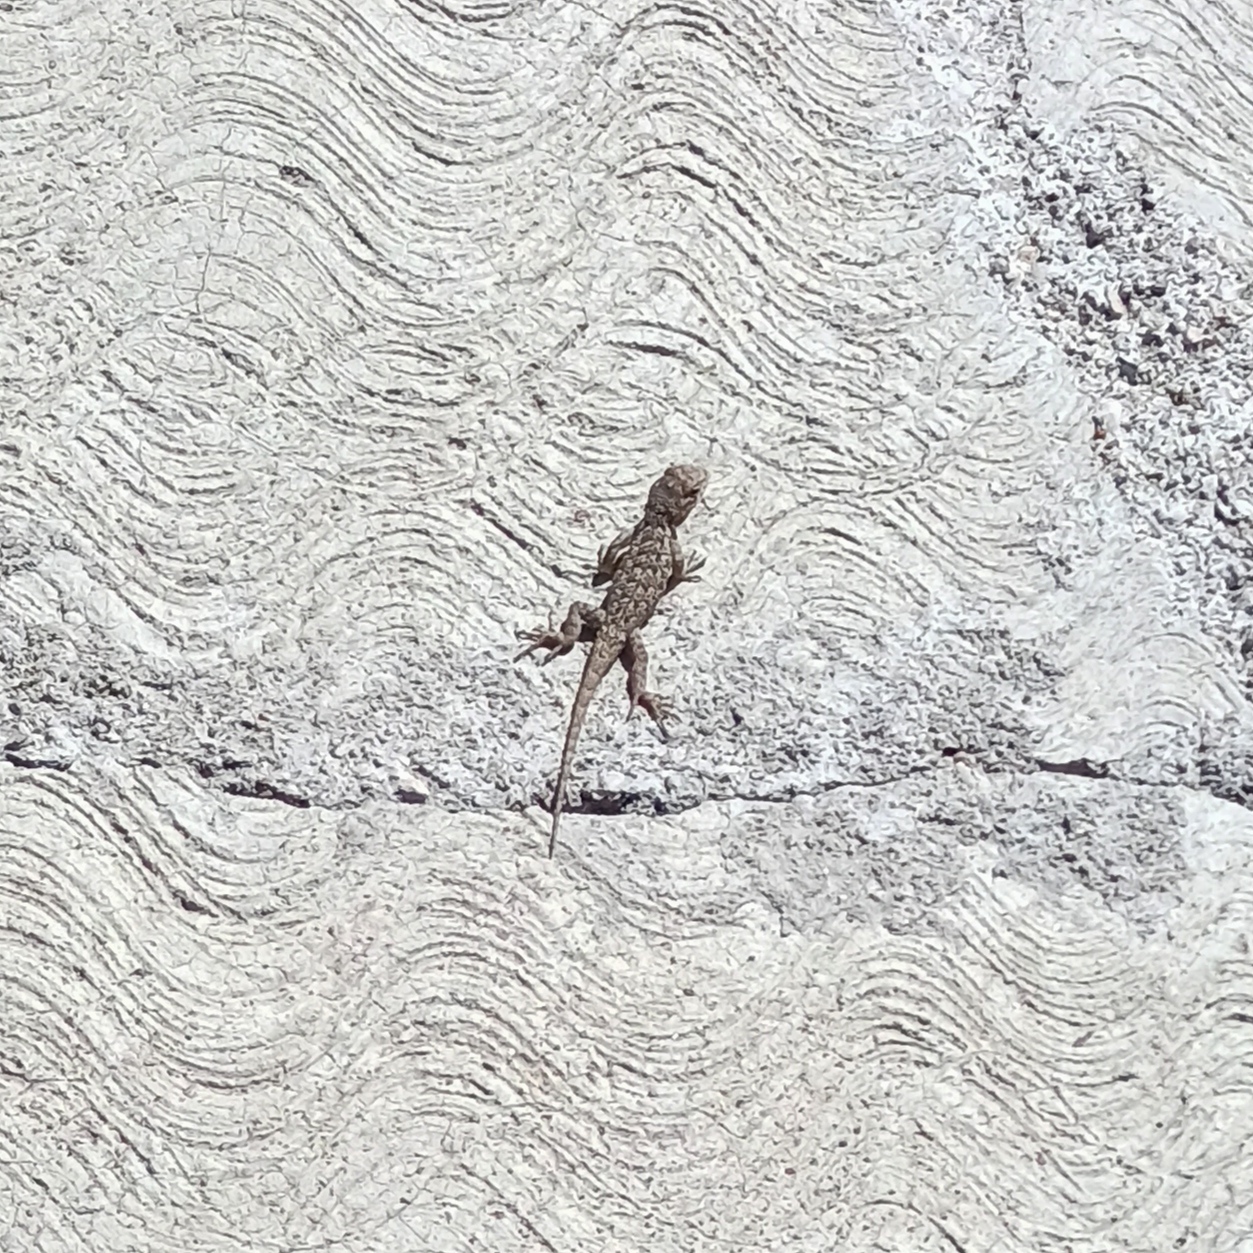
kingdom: Animalia
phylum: Chordata
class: Squamata
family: Phrynosomatidae
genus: Sceloporus
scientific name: Sceloporus spinosus
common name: Blue-spotted spiny lizard [caeruleopunctatus]
